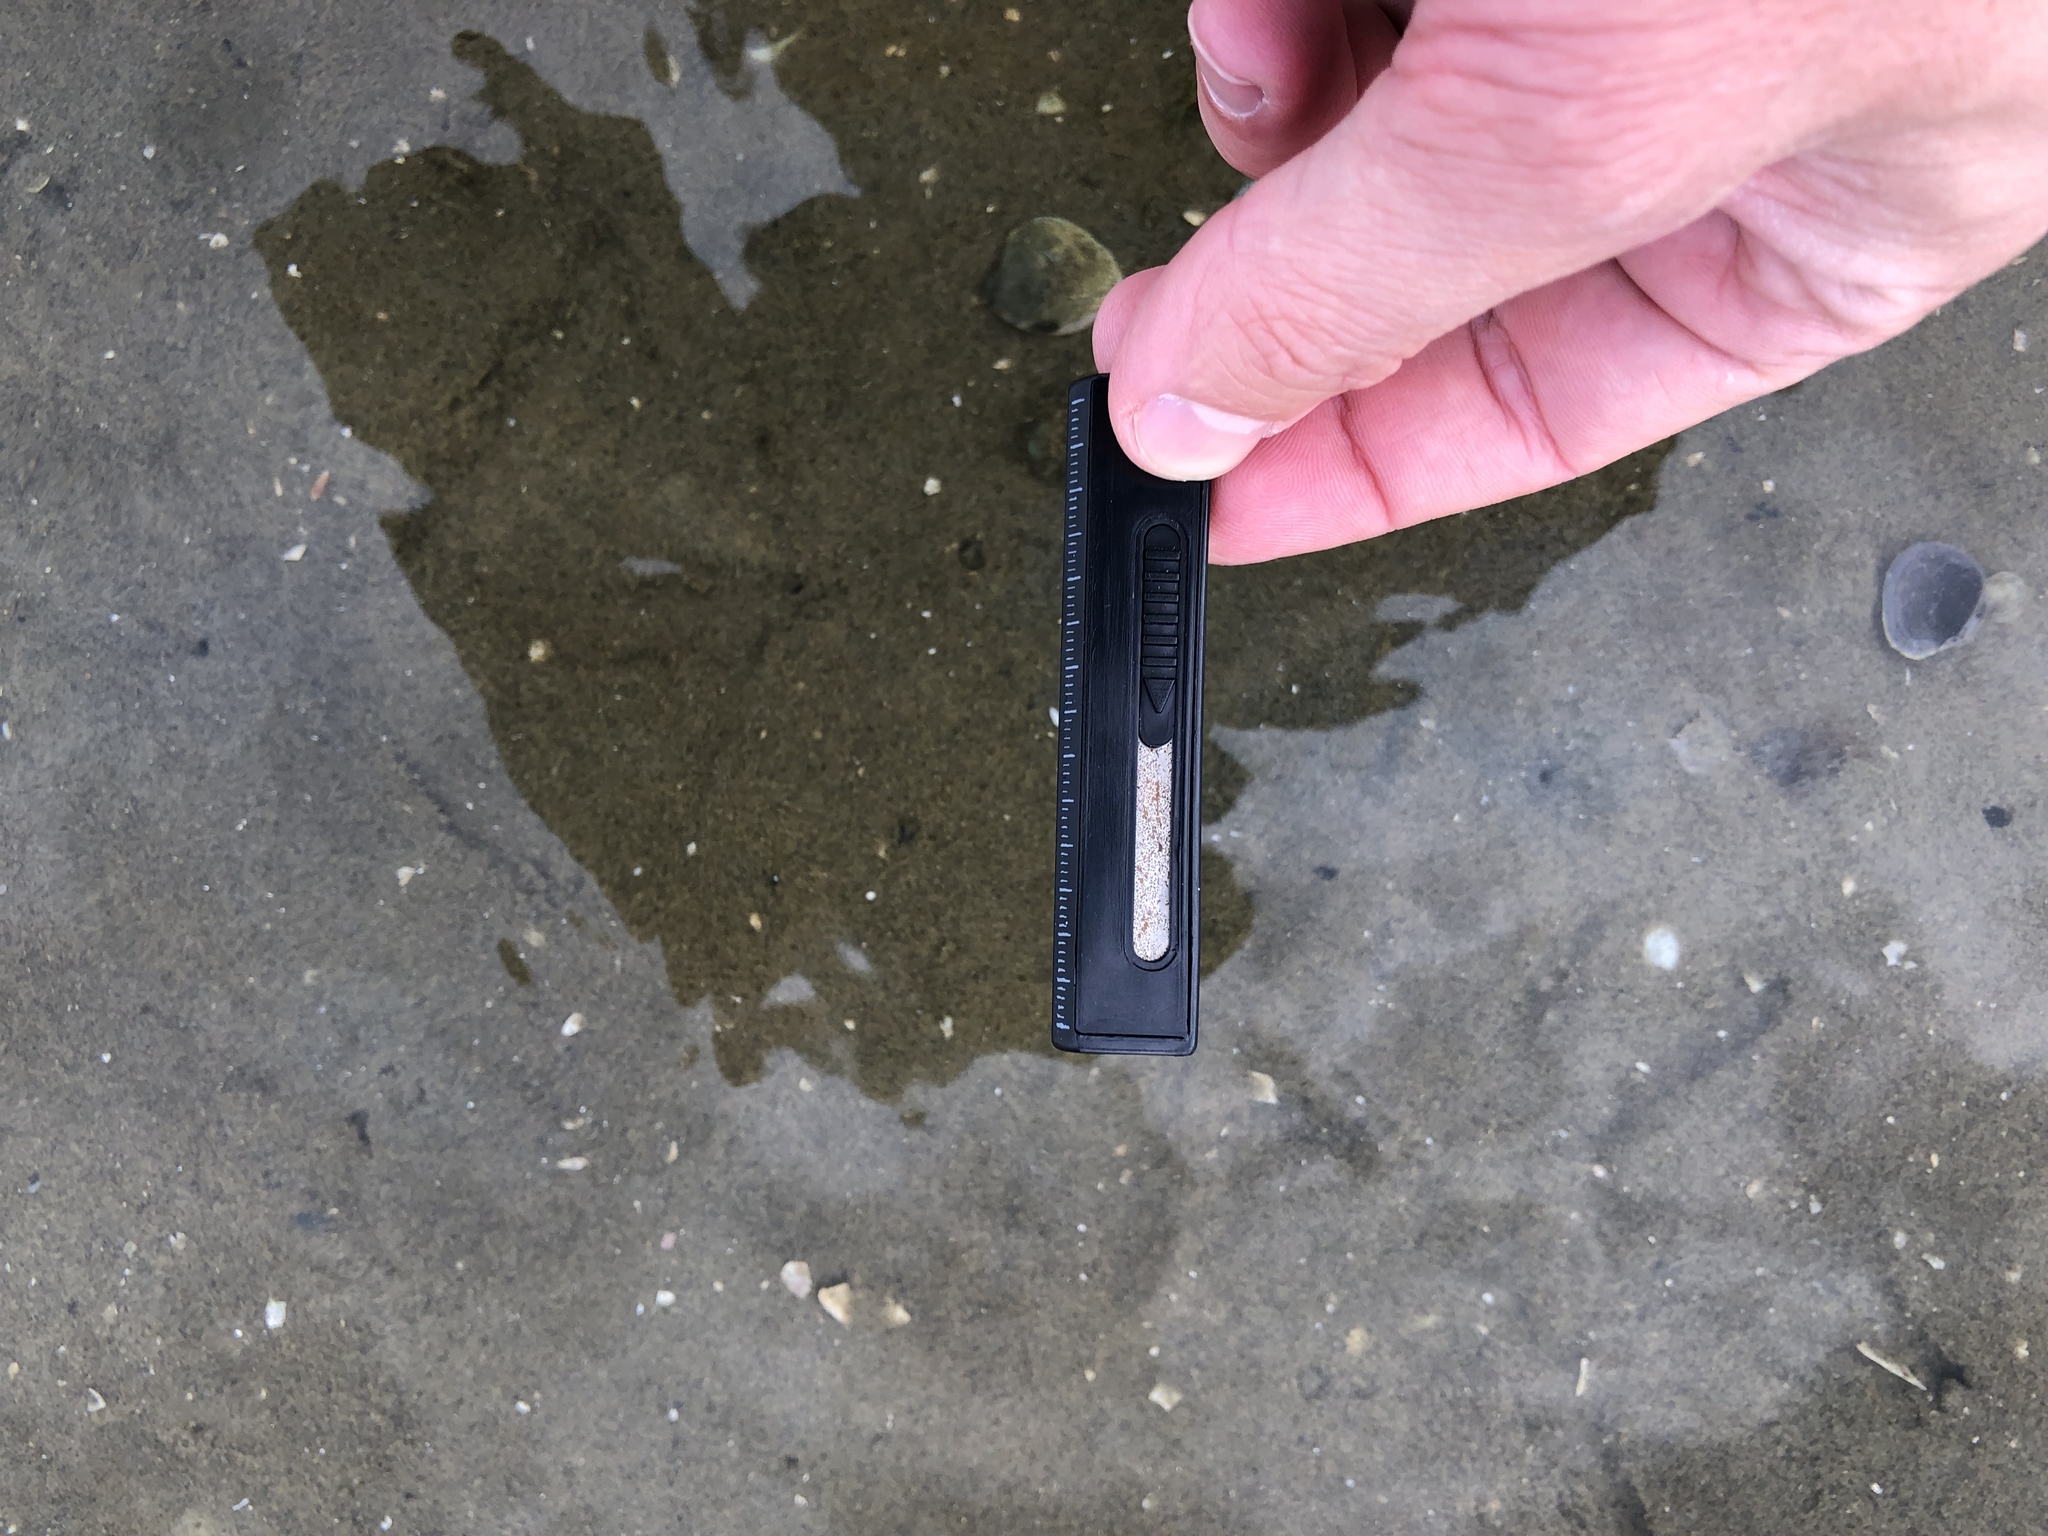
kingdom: Animalia
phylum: Chordata
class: Aves
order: Pelecaniformes
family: Threskiornithidae
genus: Platalea
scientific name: Platalea regia
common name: Royal spoonbill
